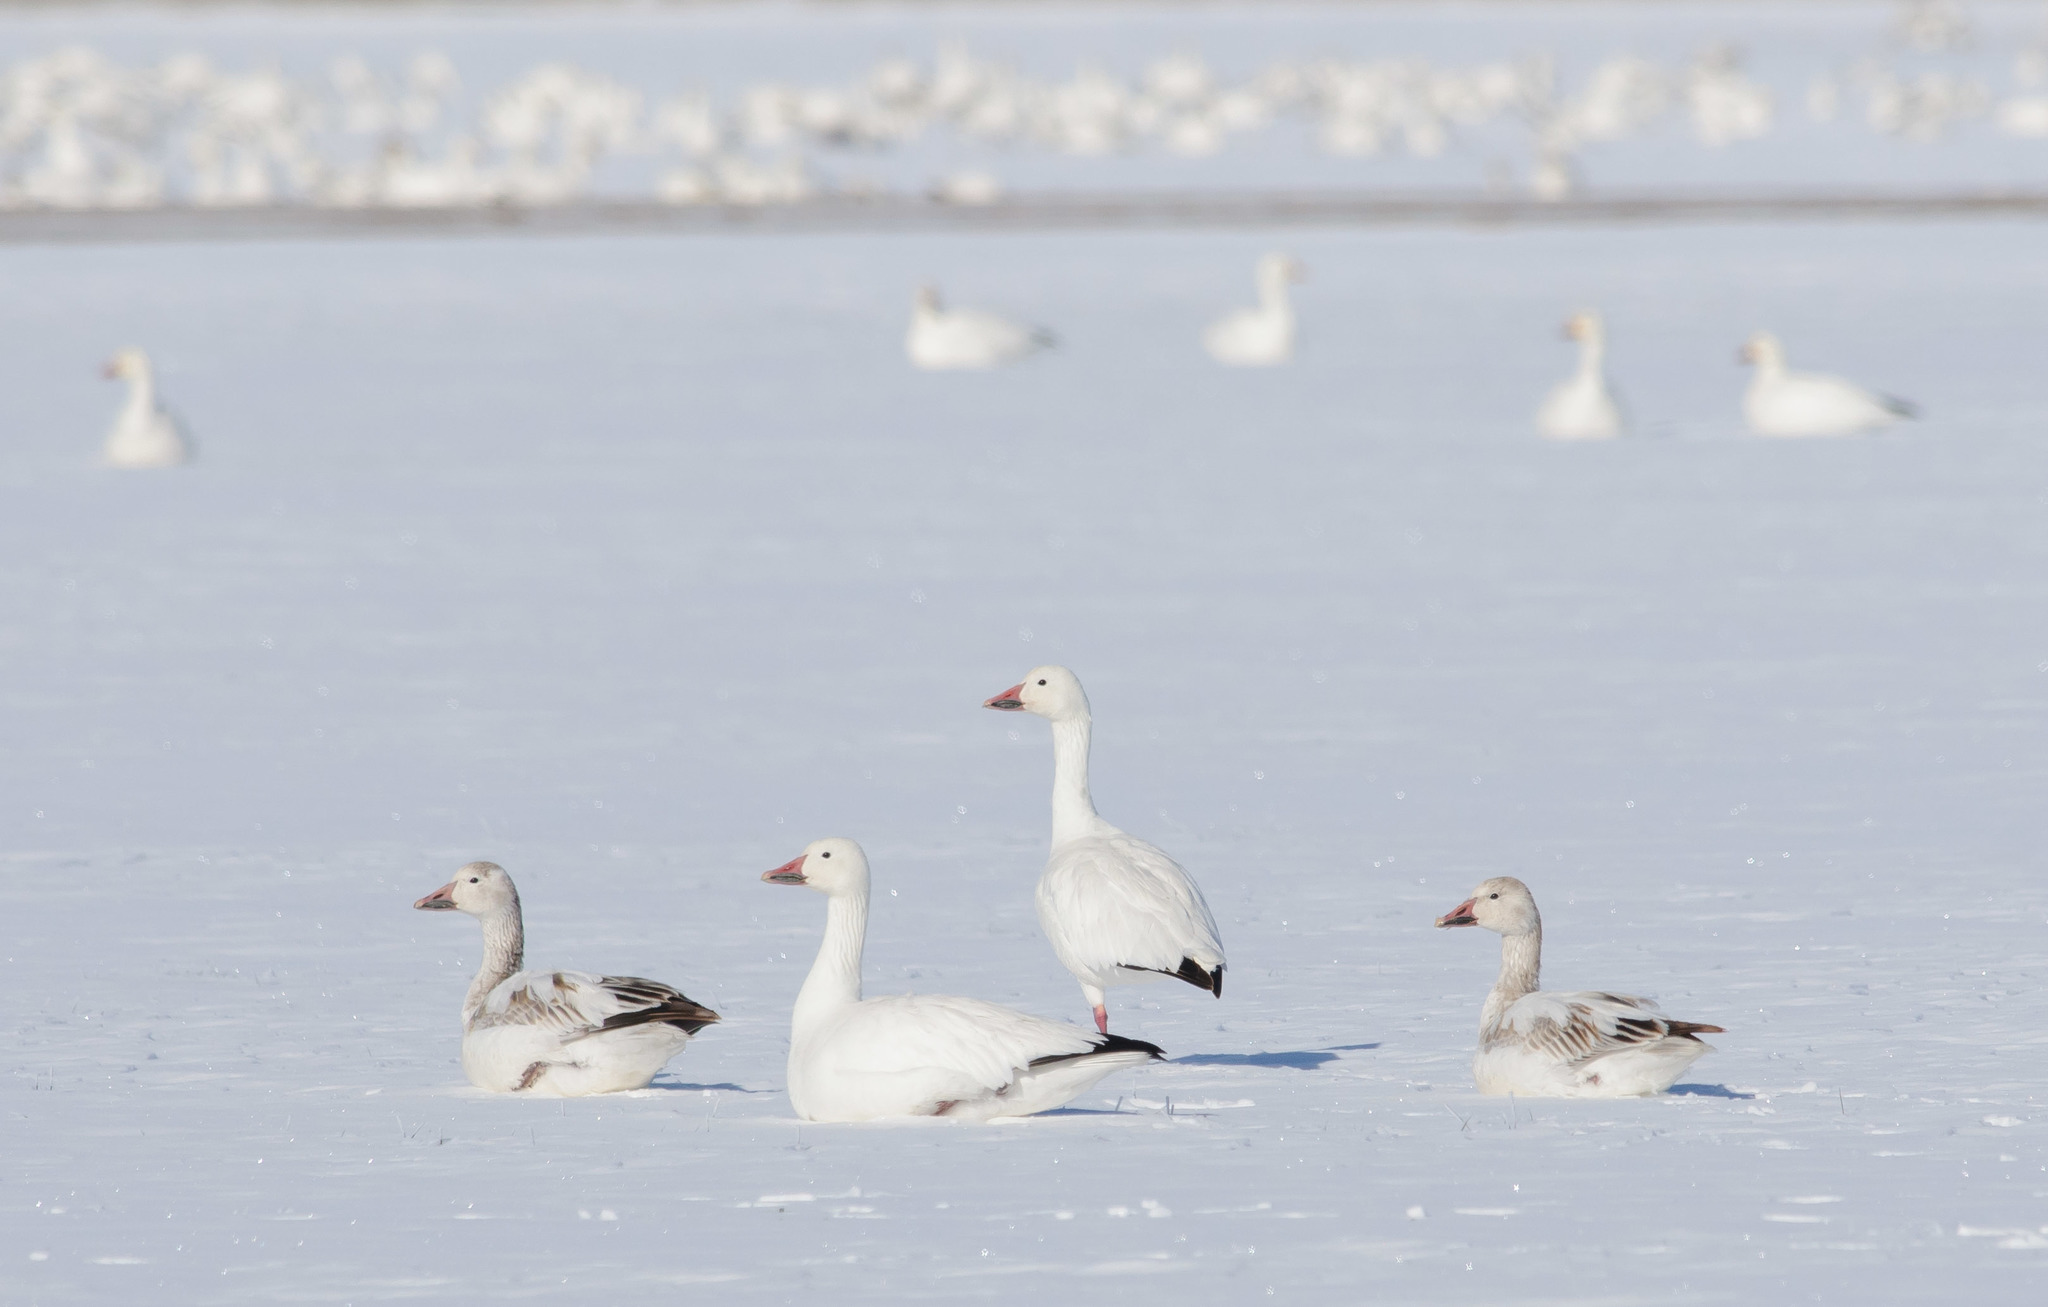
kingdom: Animalia
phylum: Chordata
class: Aves
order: Anseriformes
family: Anatidae
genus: Anser
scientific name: Anser caerulescens
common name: Snow goose
